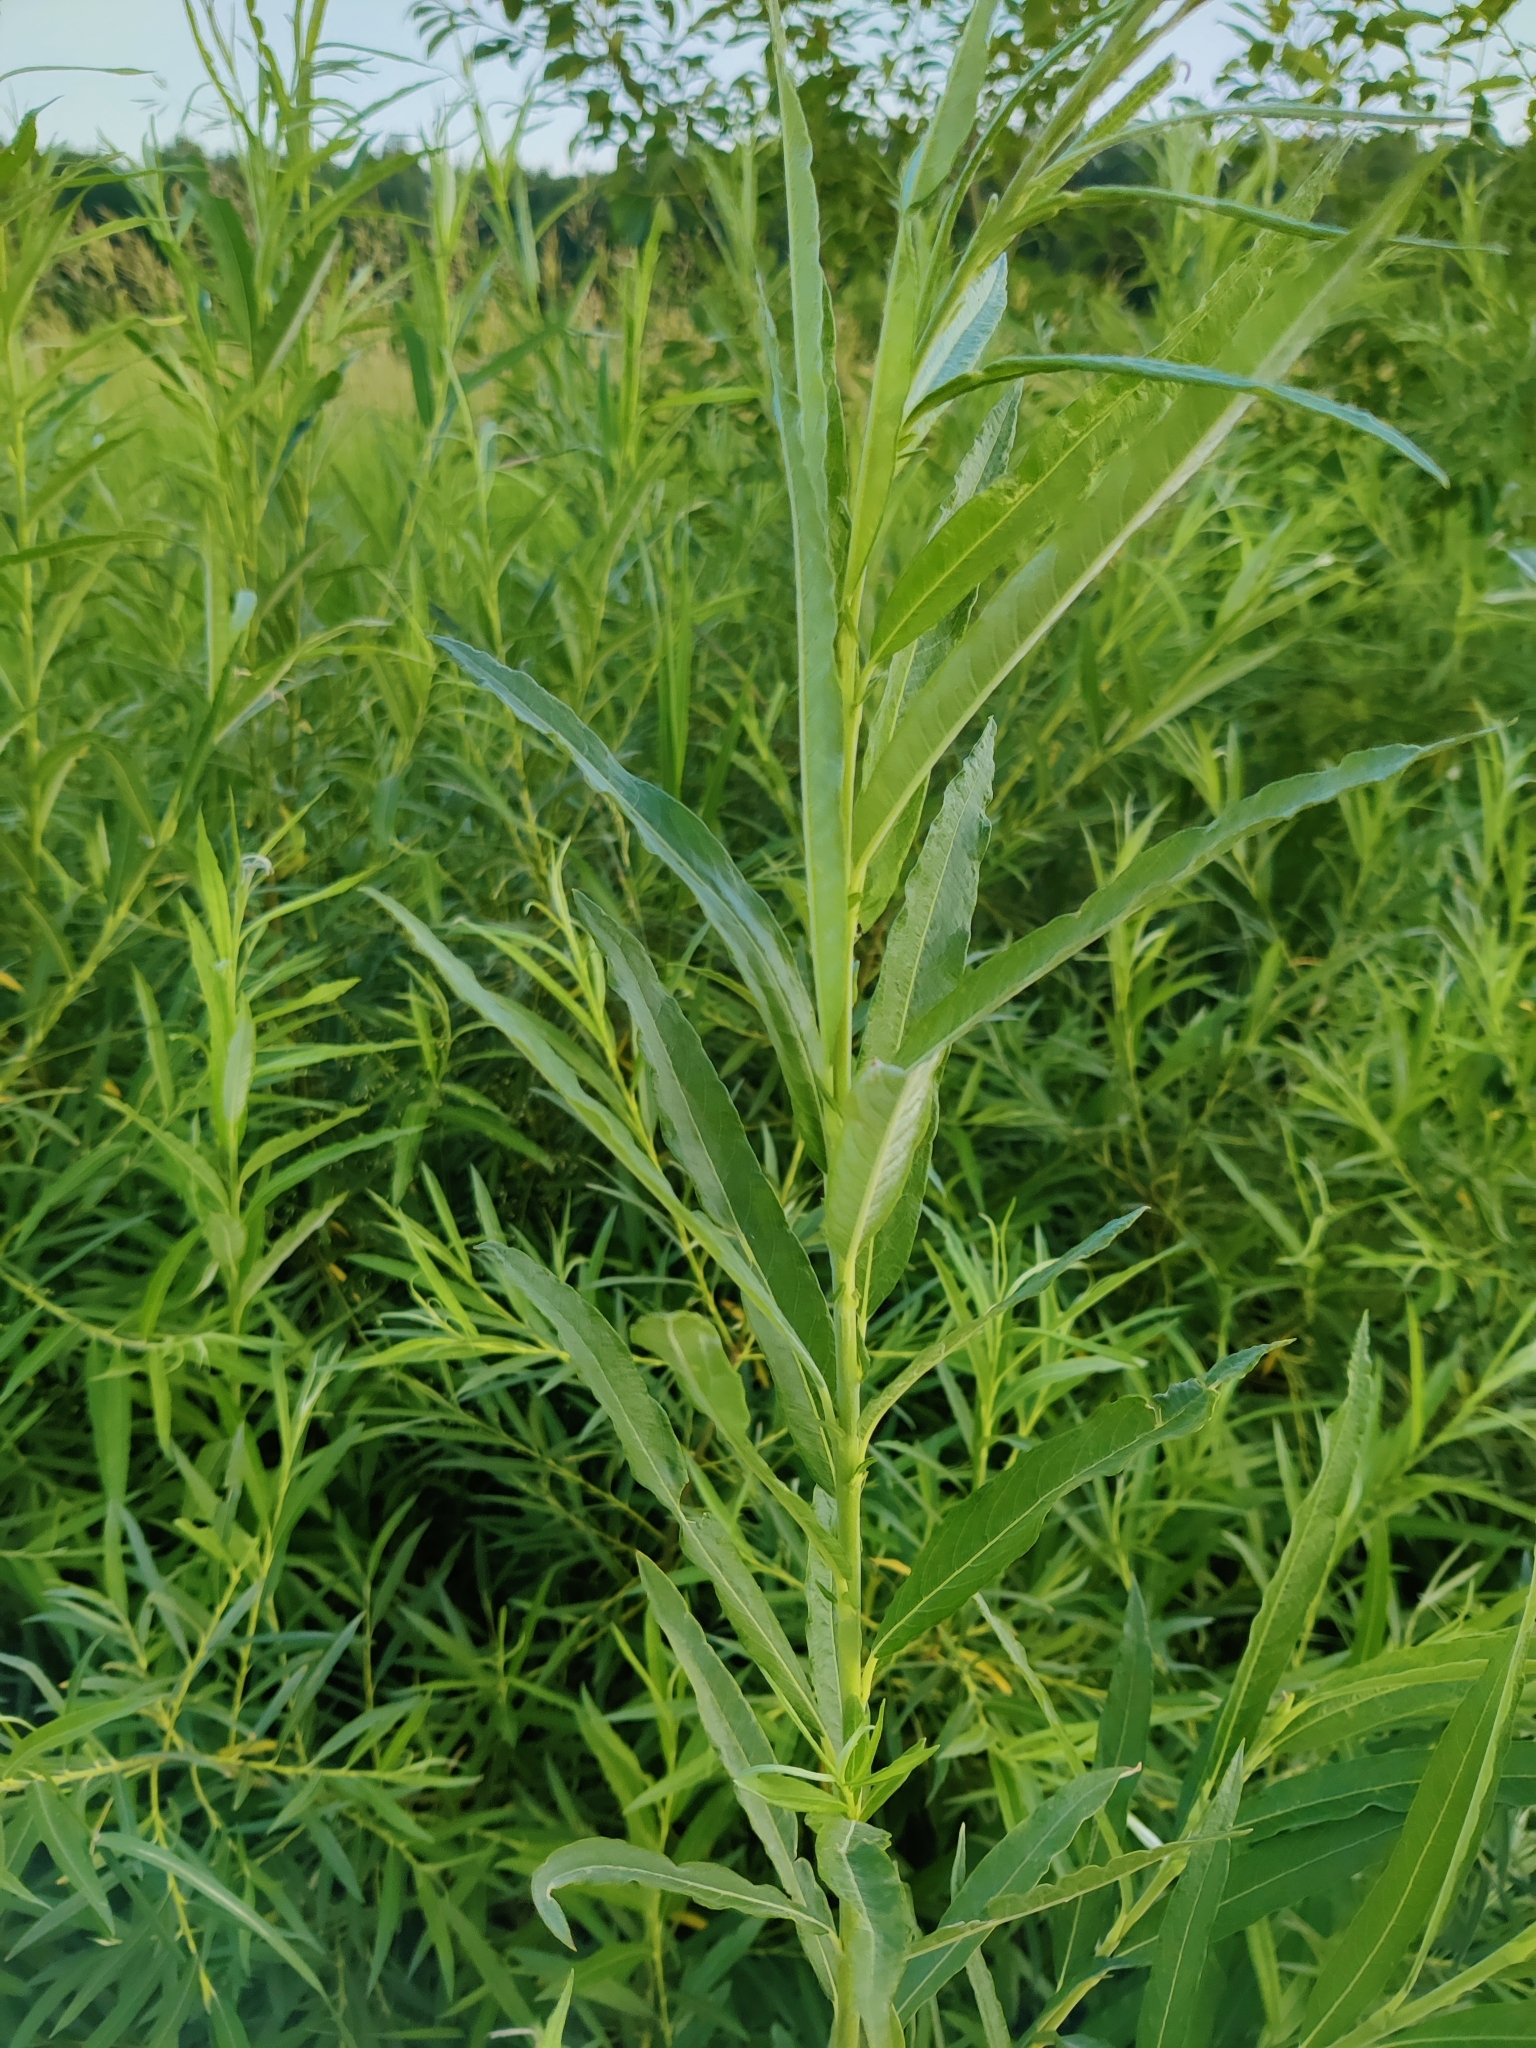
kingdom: Plantae
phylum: Tracheophyta
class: Magnoliopsida
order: Malpighiales
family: Salicaceae
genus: Salix
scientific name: Salix viminalis
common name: Osier
